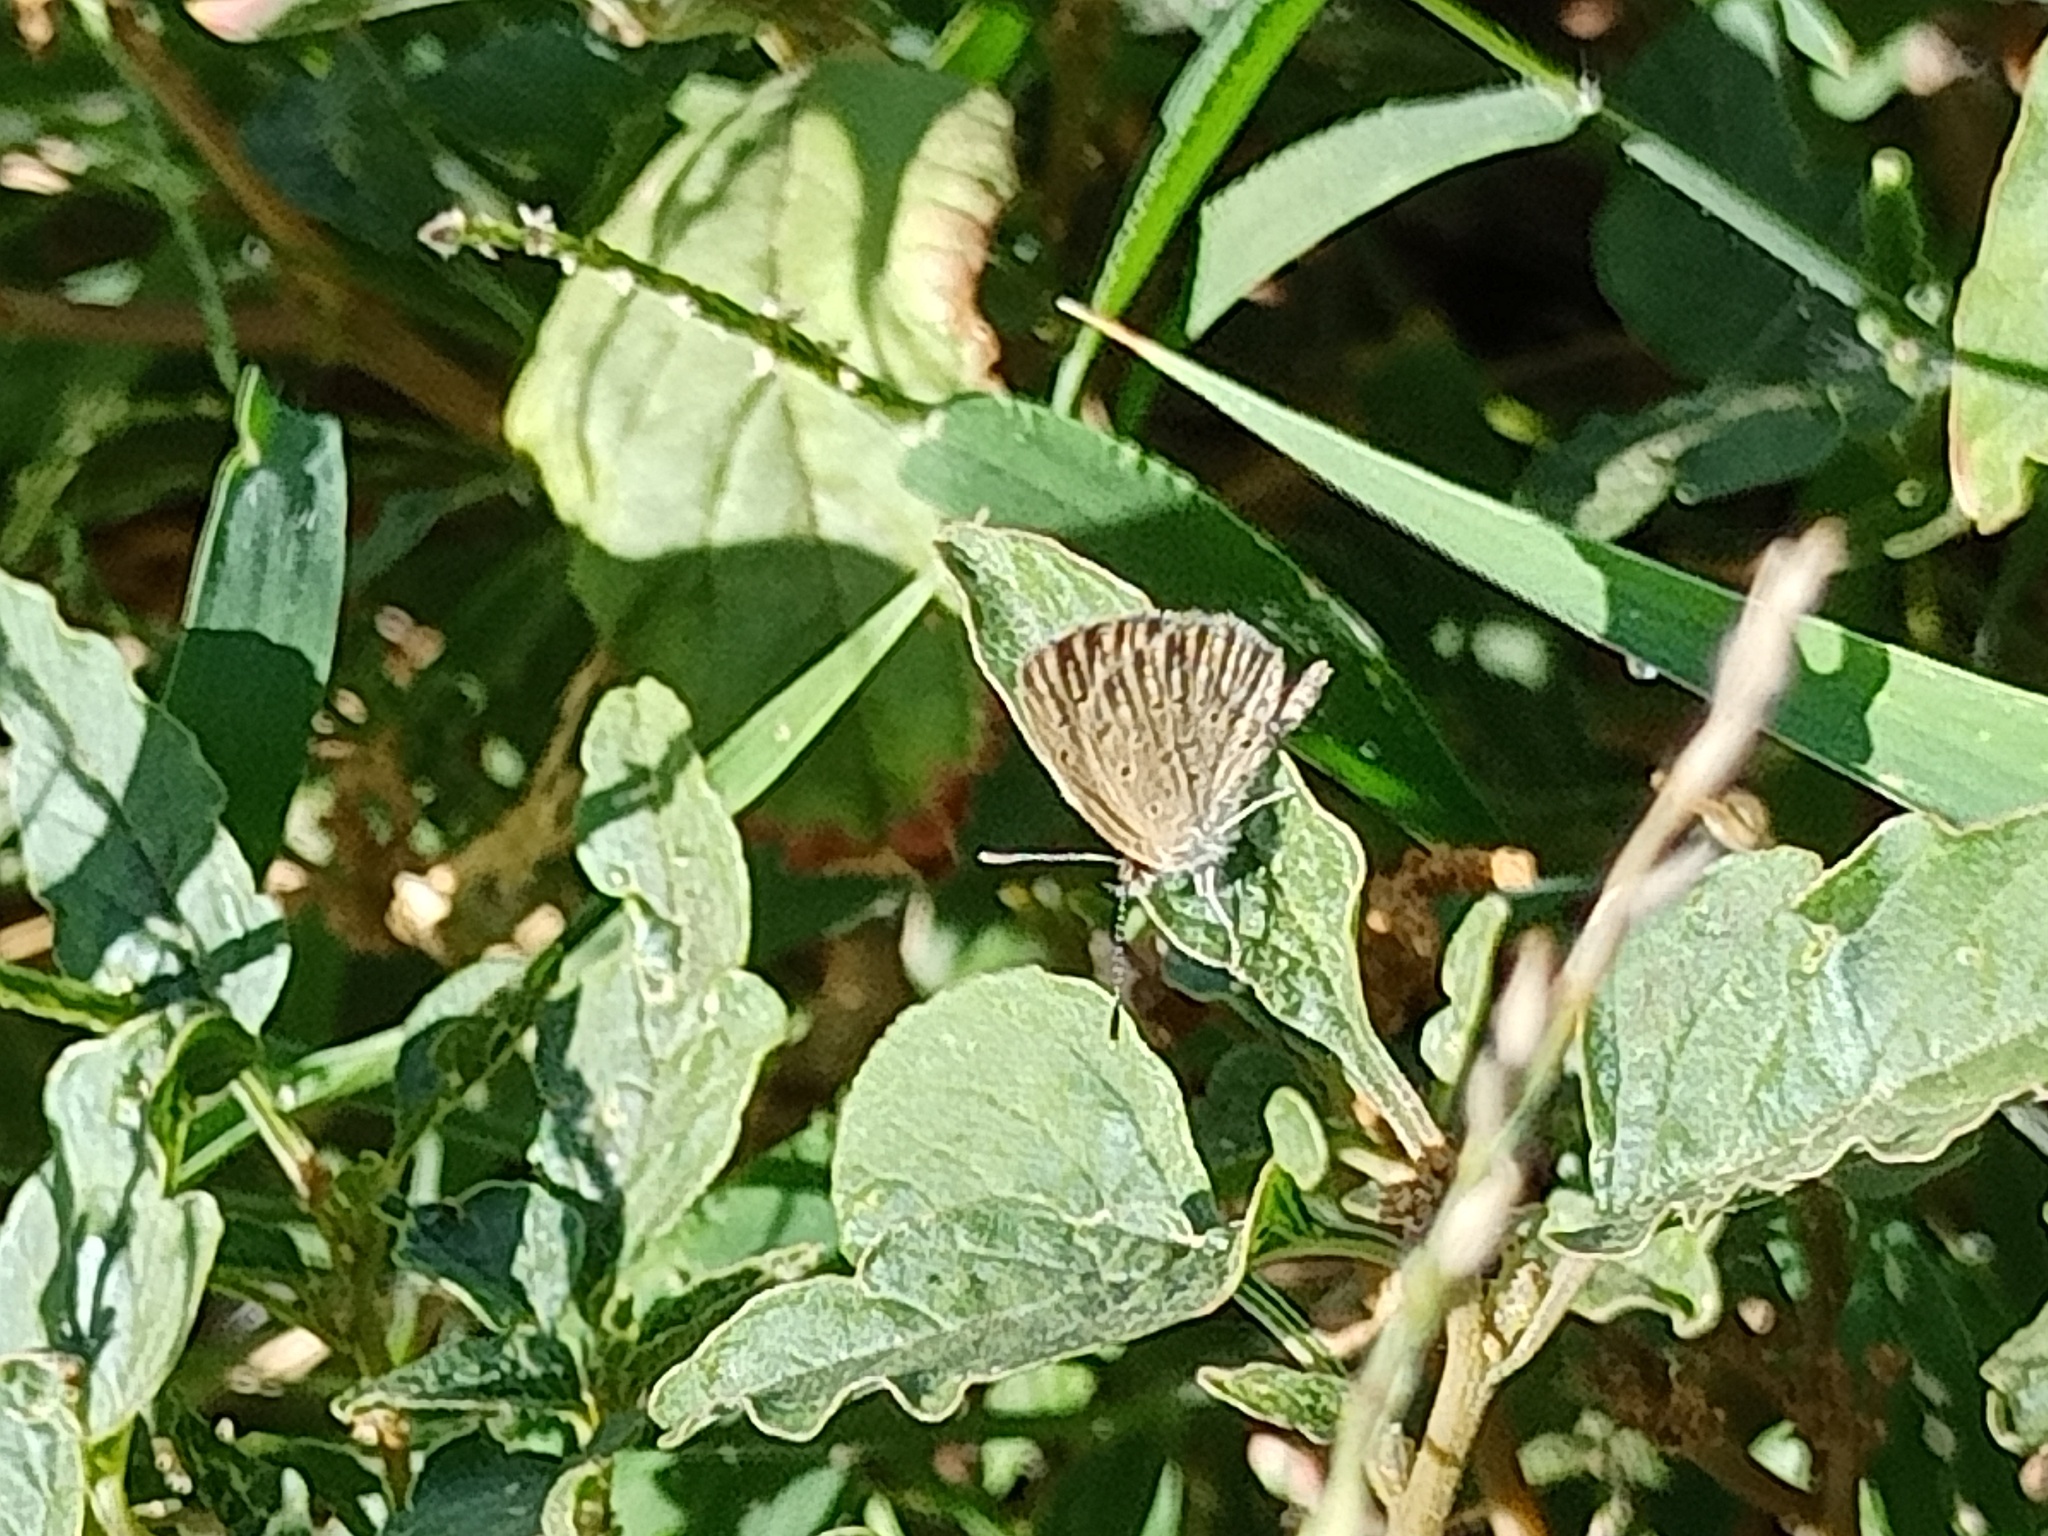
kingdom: Animalia
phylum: Arthropoda
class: Insecta
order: Lepidoptera
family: Lycaenidae
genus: Zizeeria
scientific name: Zizeeria knysna
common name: African grass blue
